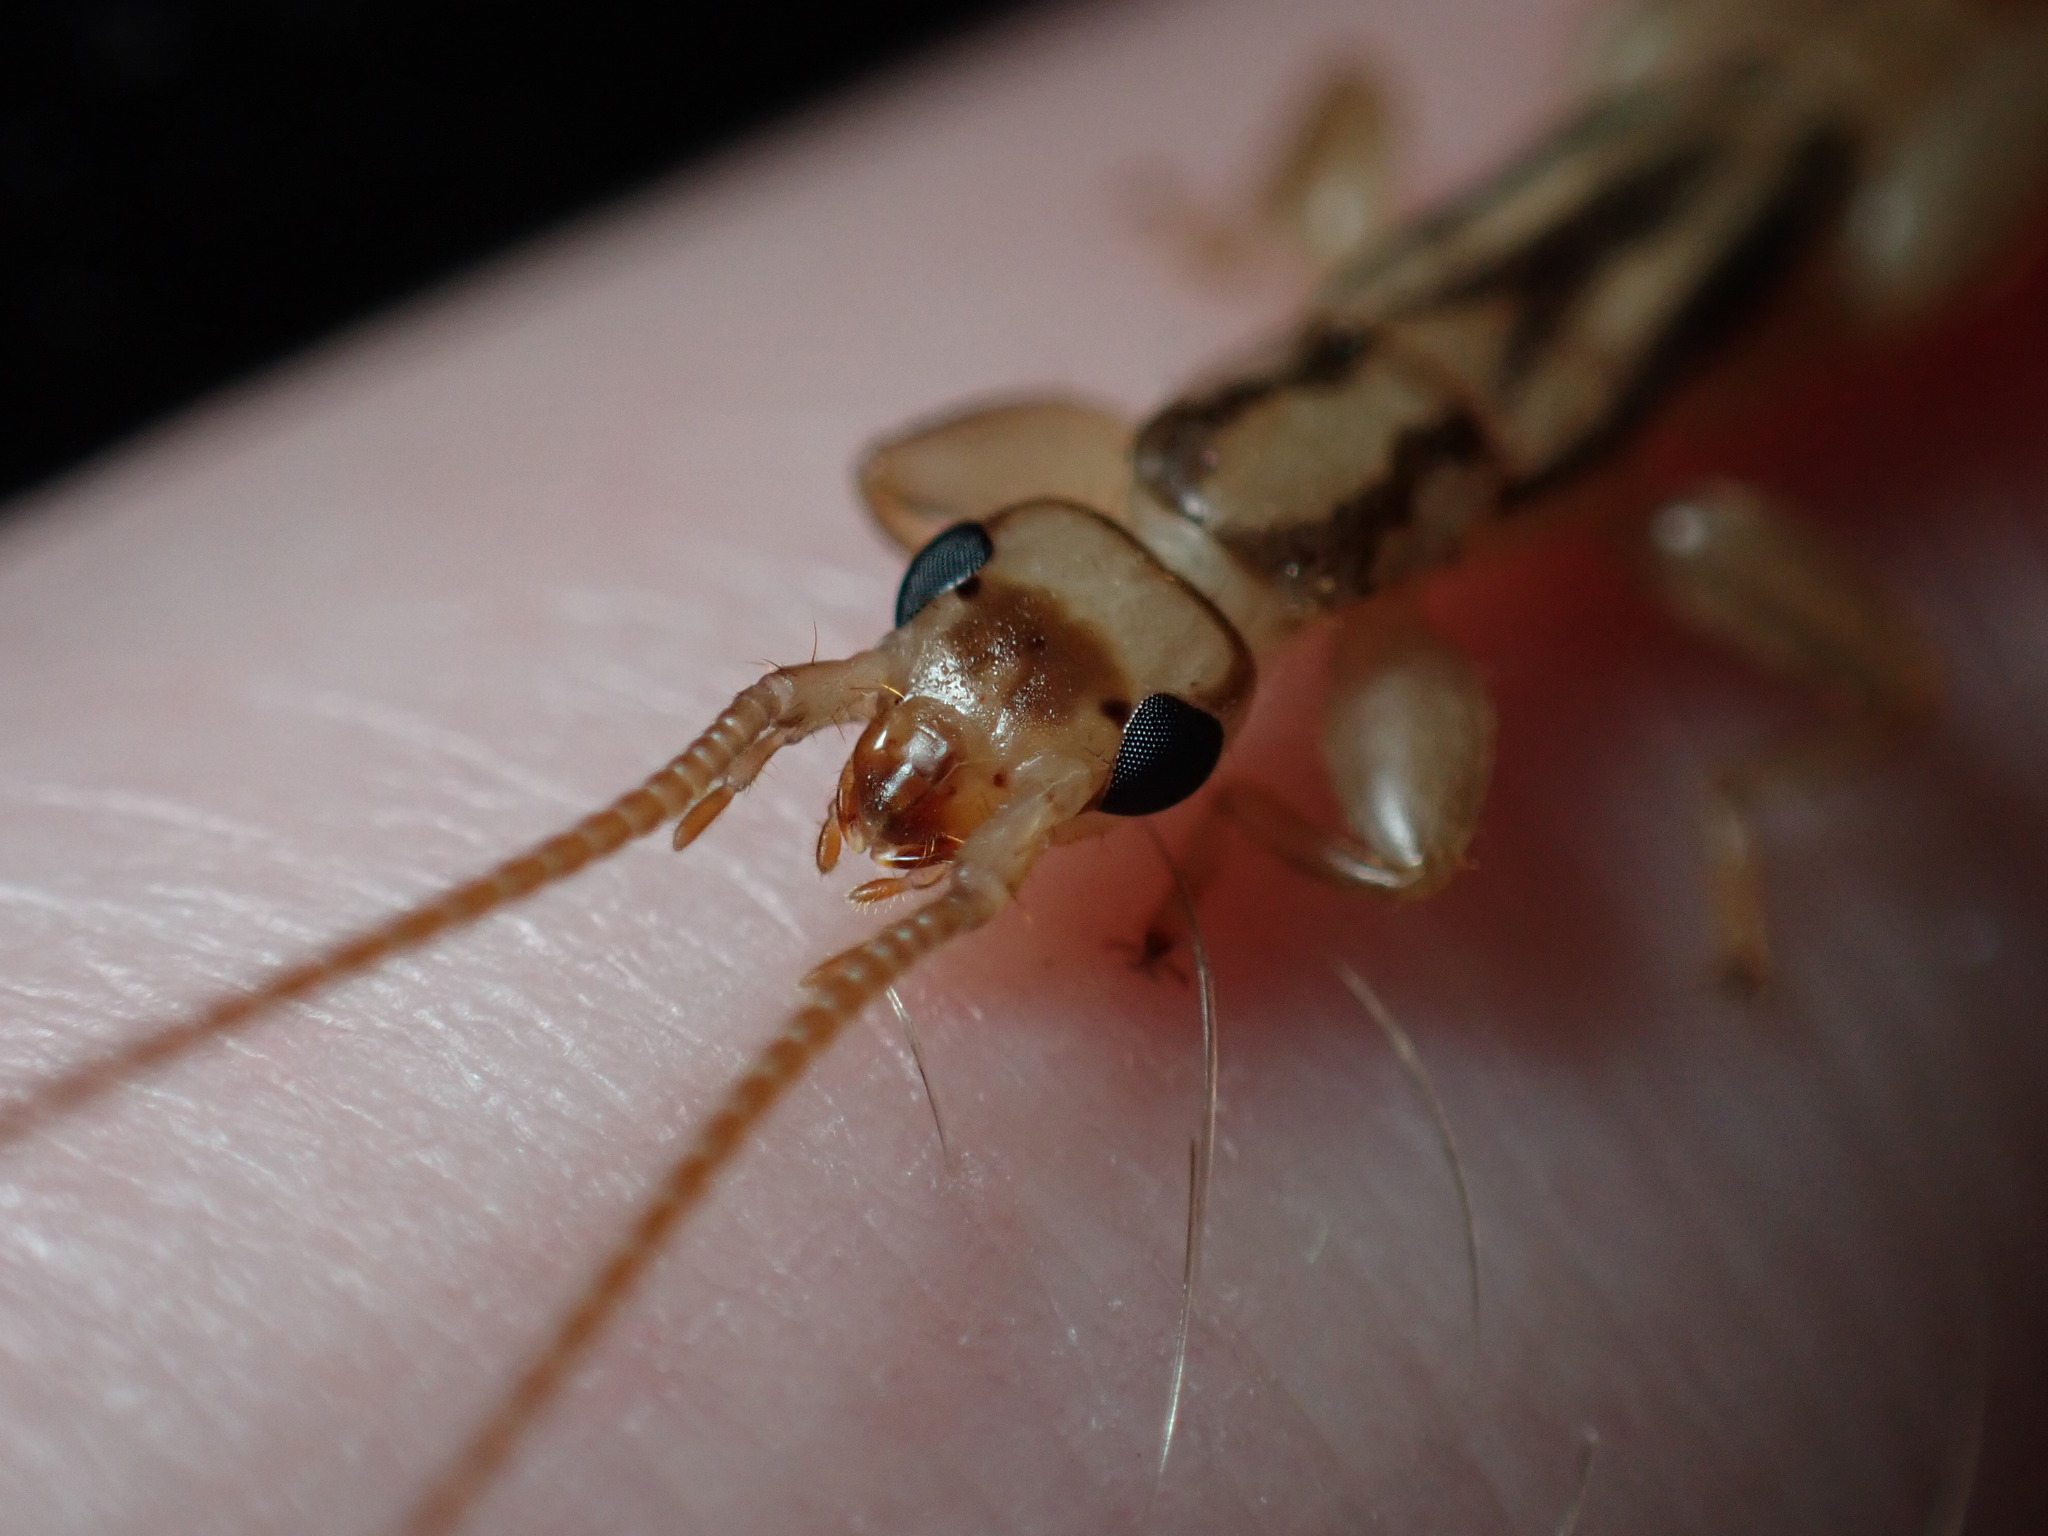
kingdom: Animalia
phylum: Arthropoda
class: Insecta
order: Dermaptera
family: Pygidicranidae
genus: Dacnodes
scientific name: Dacnodes hackeri
